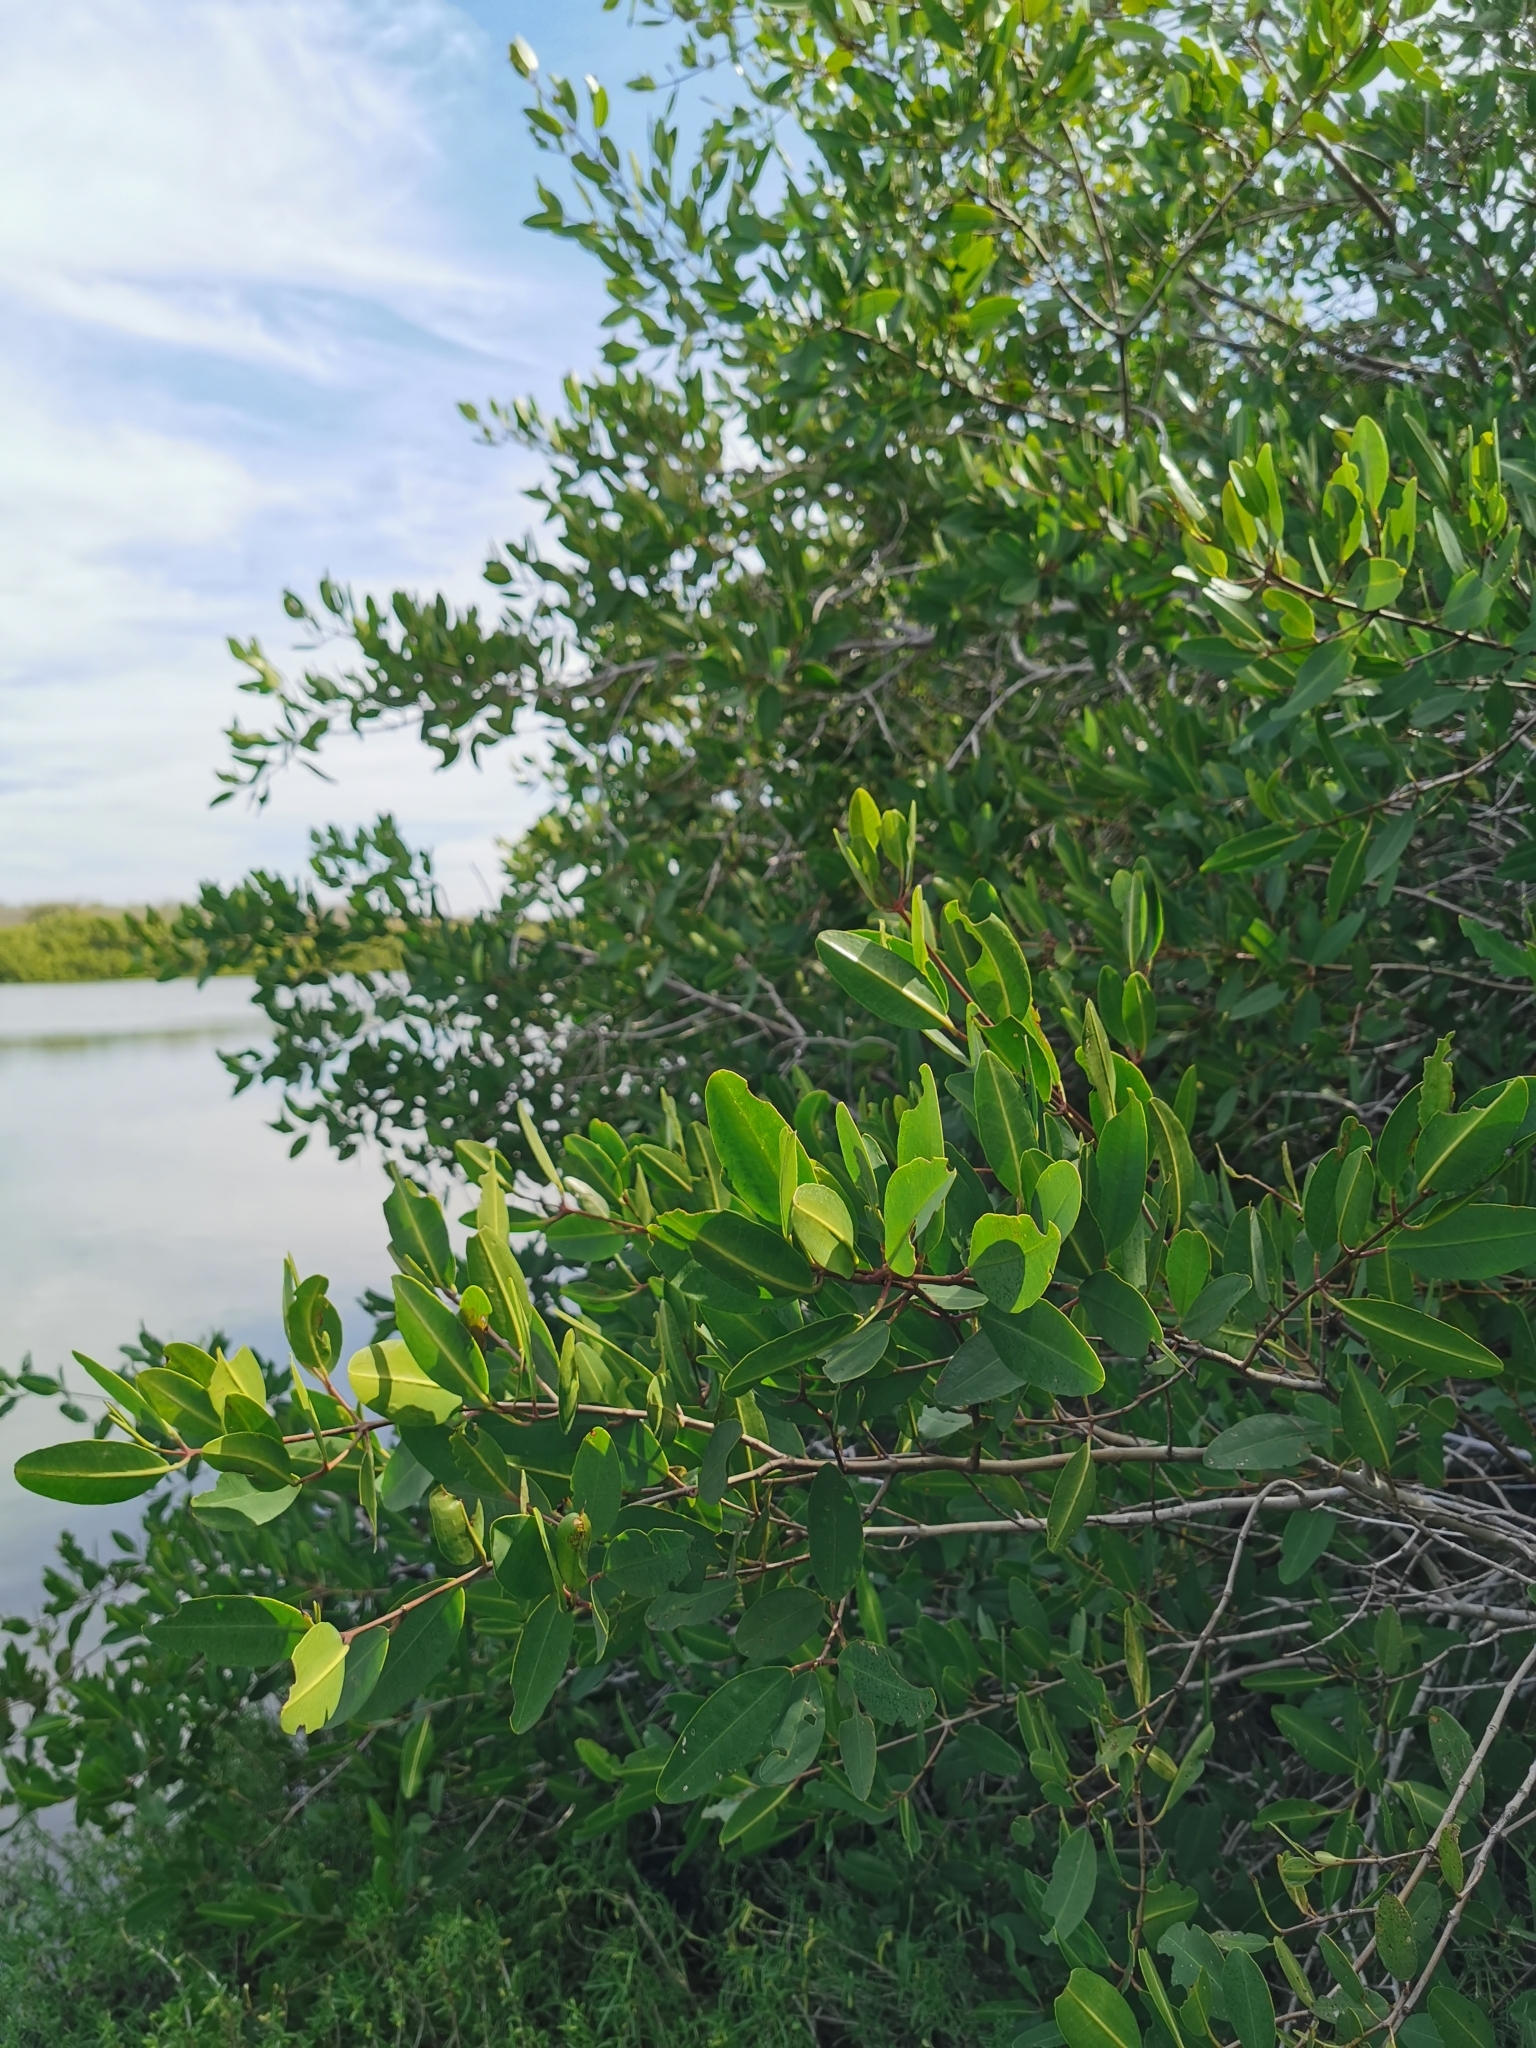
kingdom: Plantae
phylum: Tracheophyta
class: Magnoliopsida
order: Myrtales
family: Combretaceae
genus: Conocarpus
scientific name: Conocarpus erectus
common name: Button mangrove
